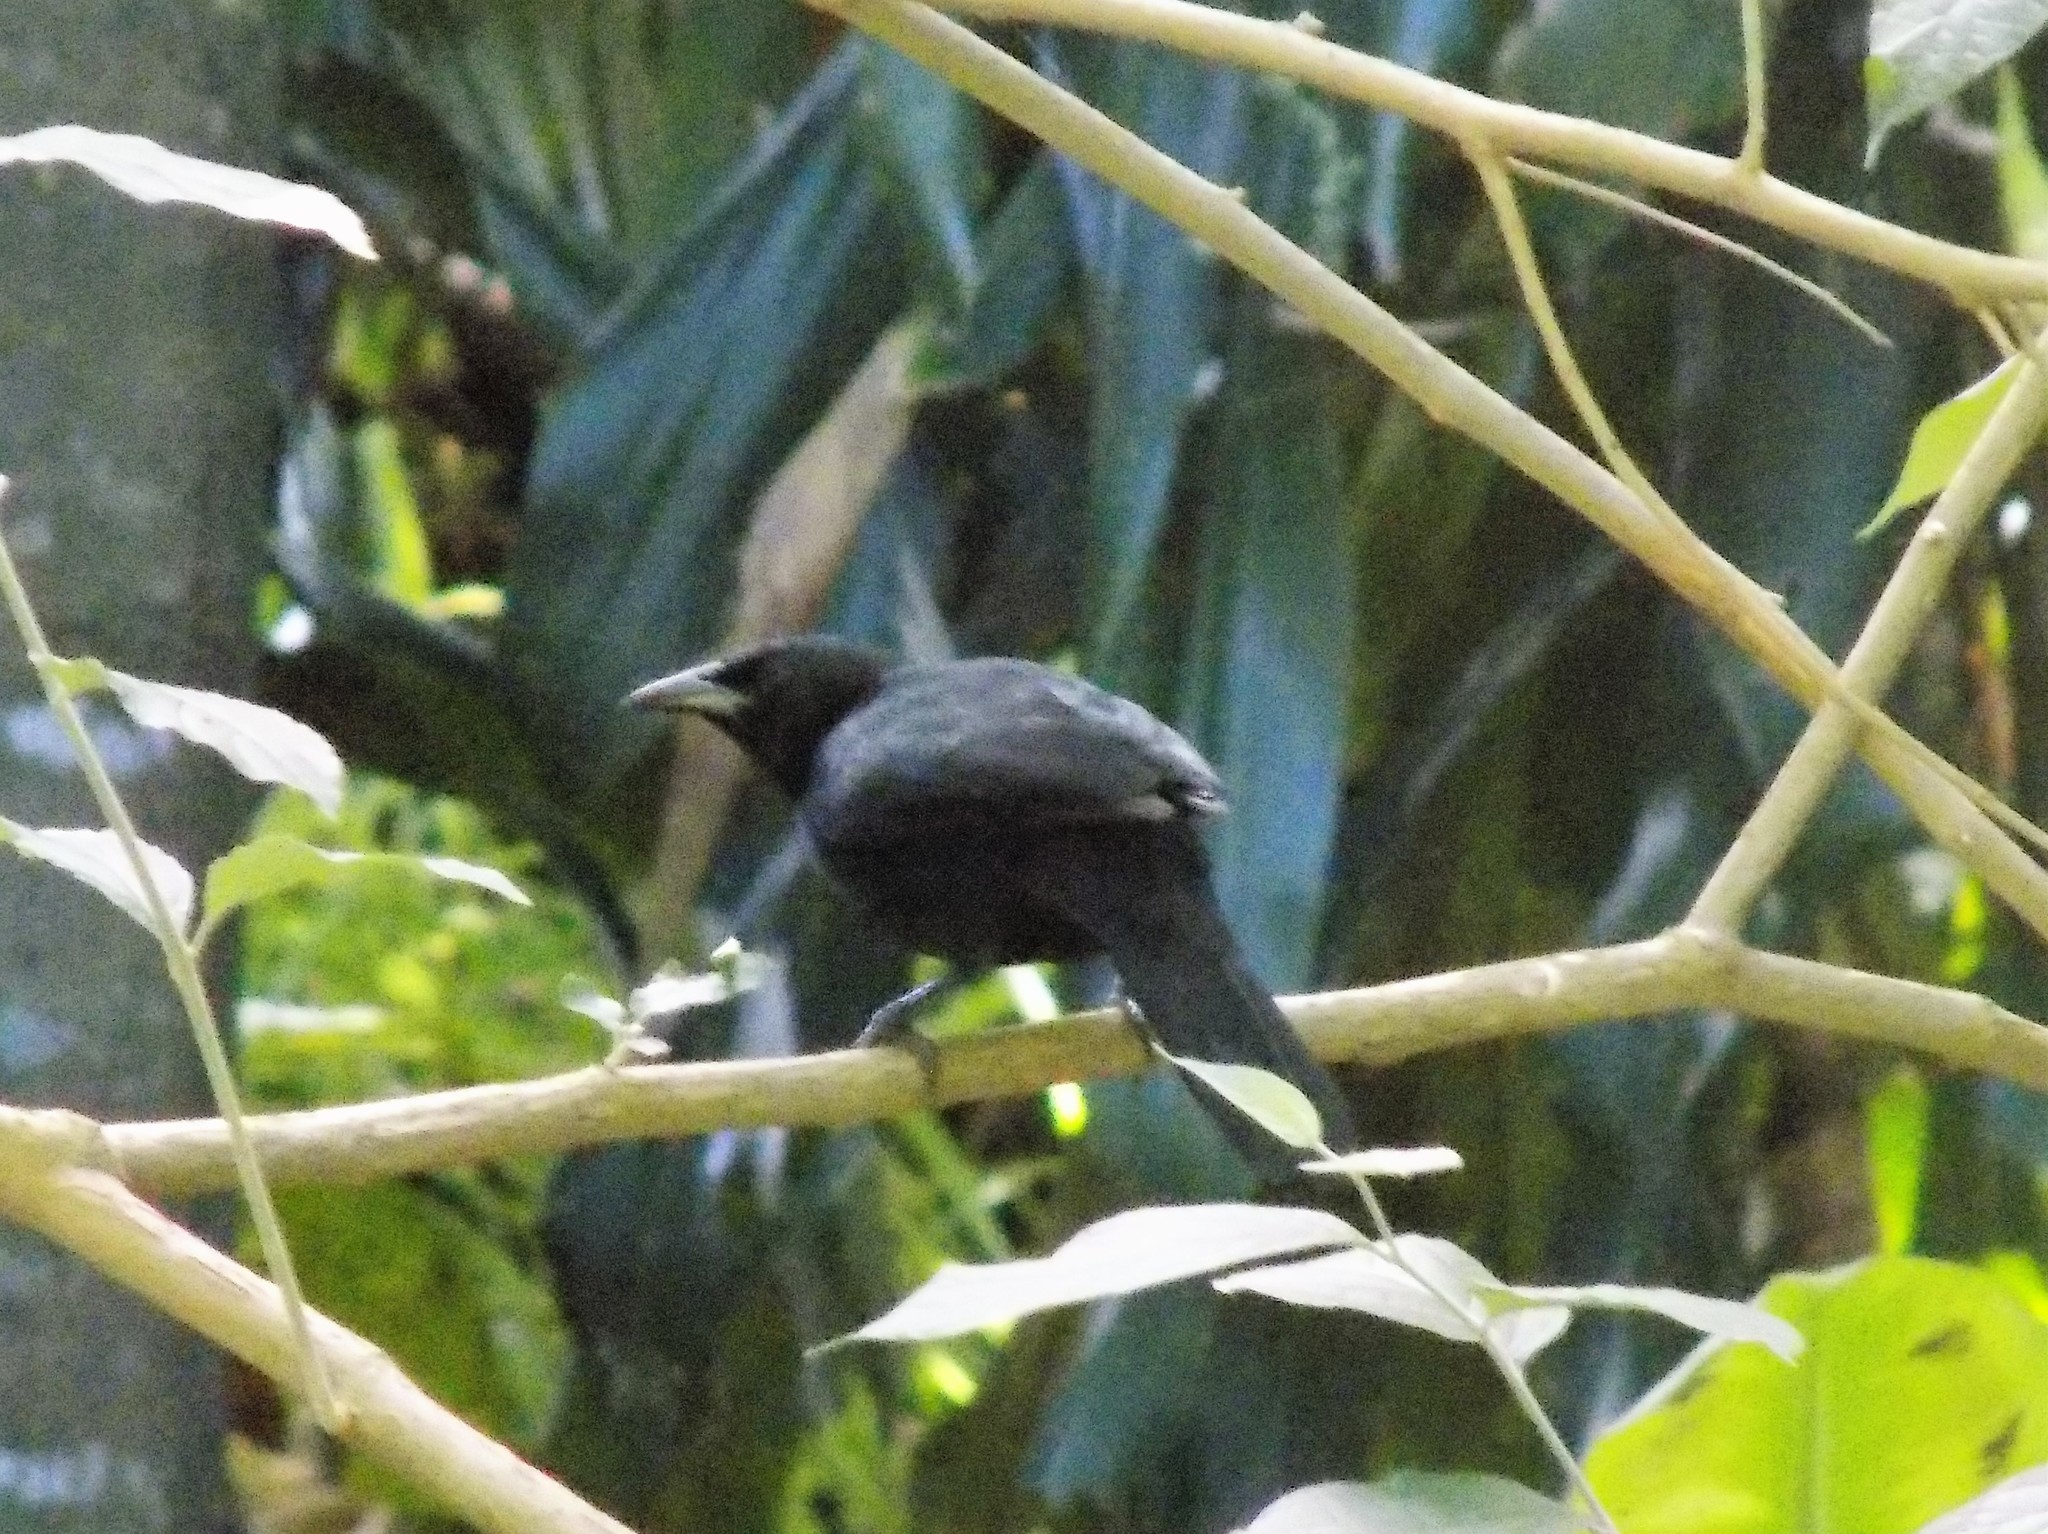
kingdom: Animalia
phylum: Chordata
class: Aves
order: Passeriformes
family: Icteridae
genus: Dives
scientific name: Dives dives
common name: Melodious blackbird
